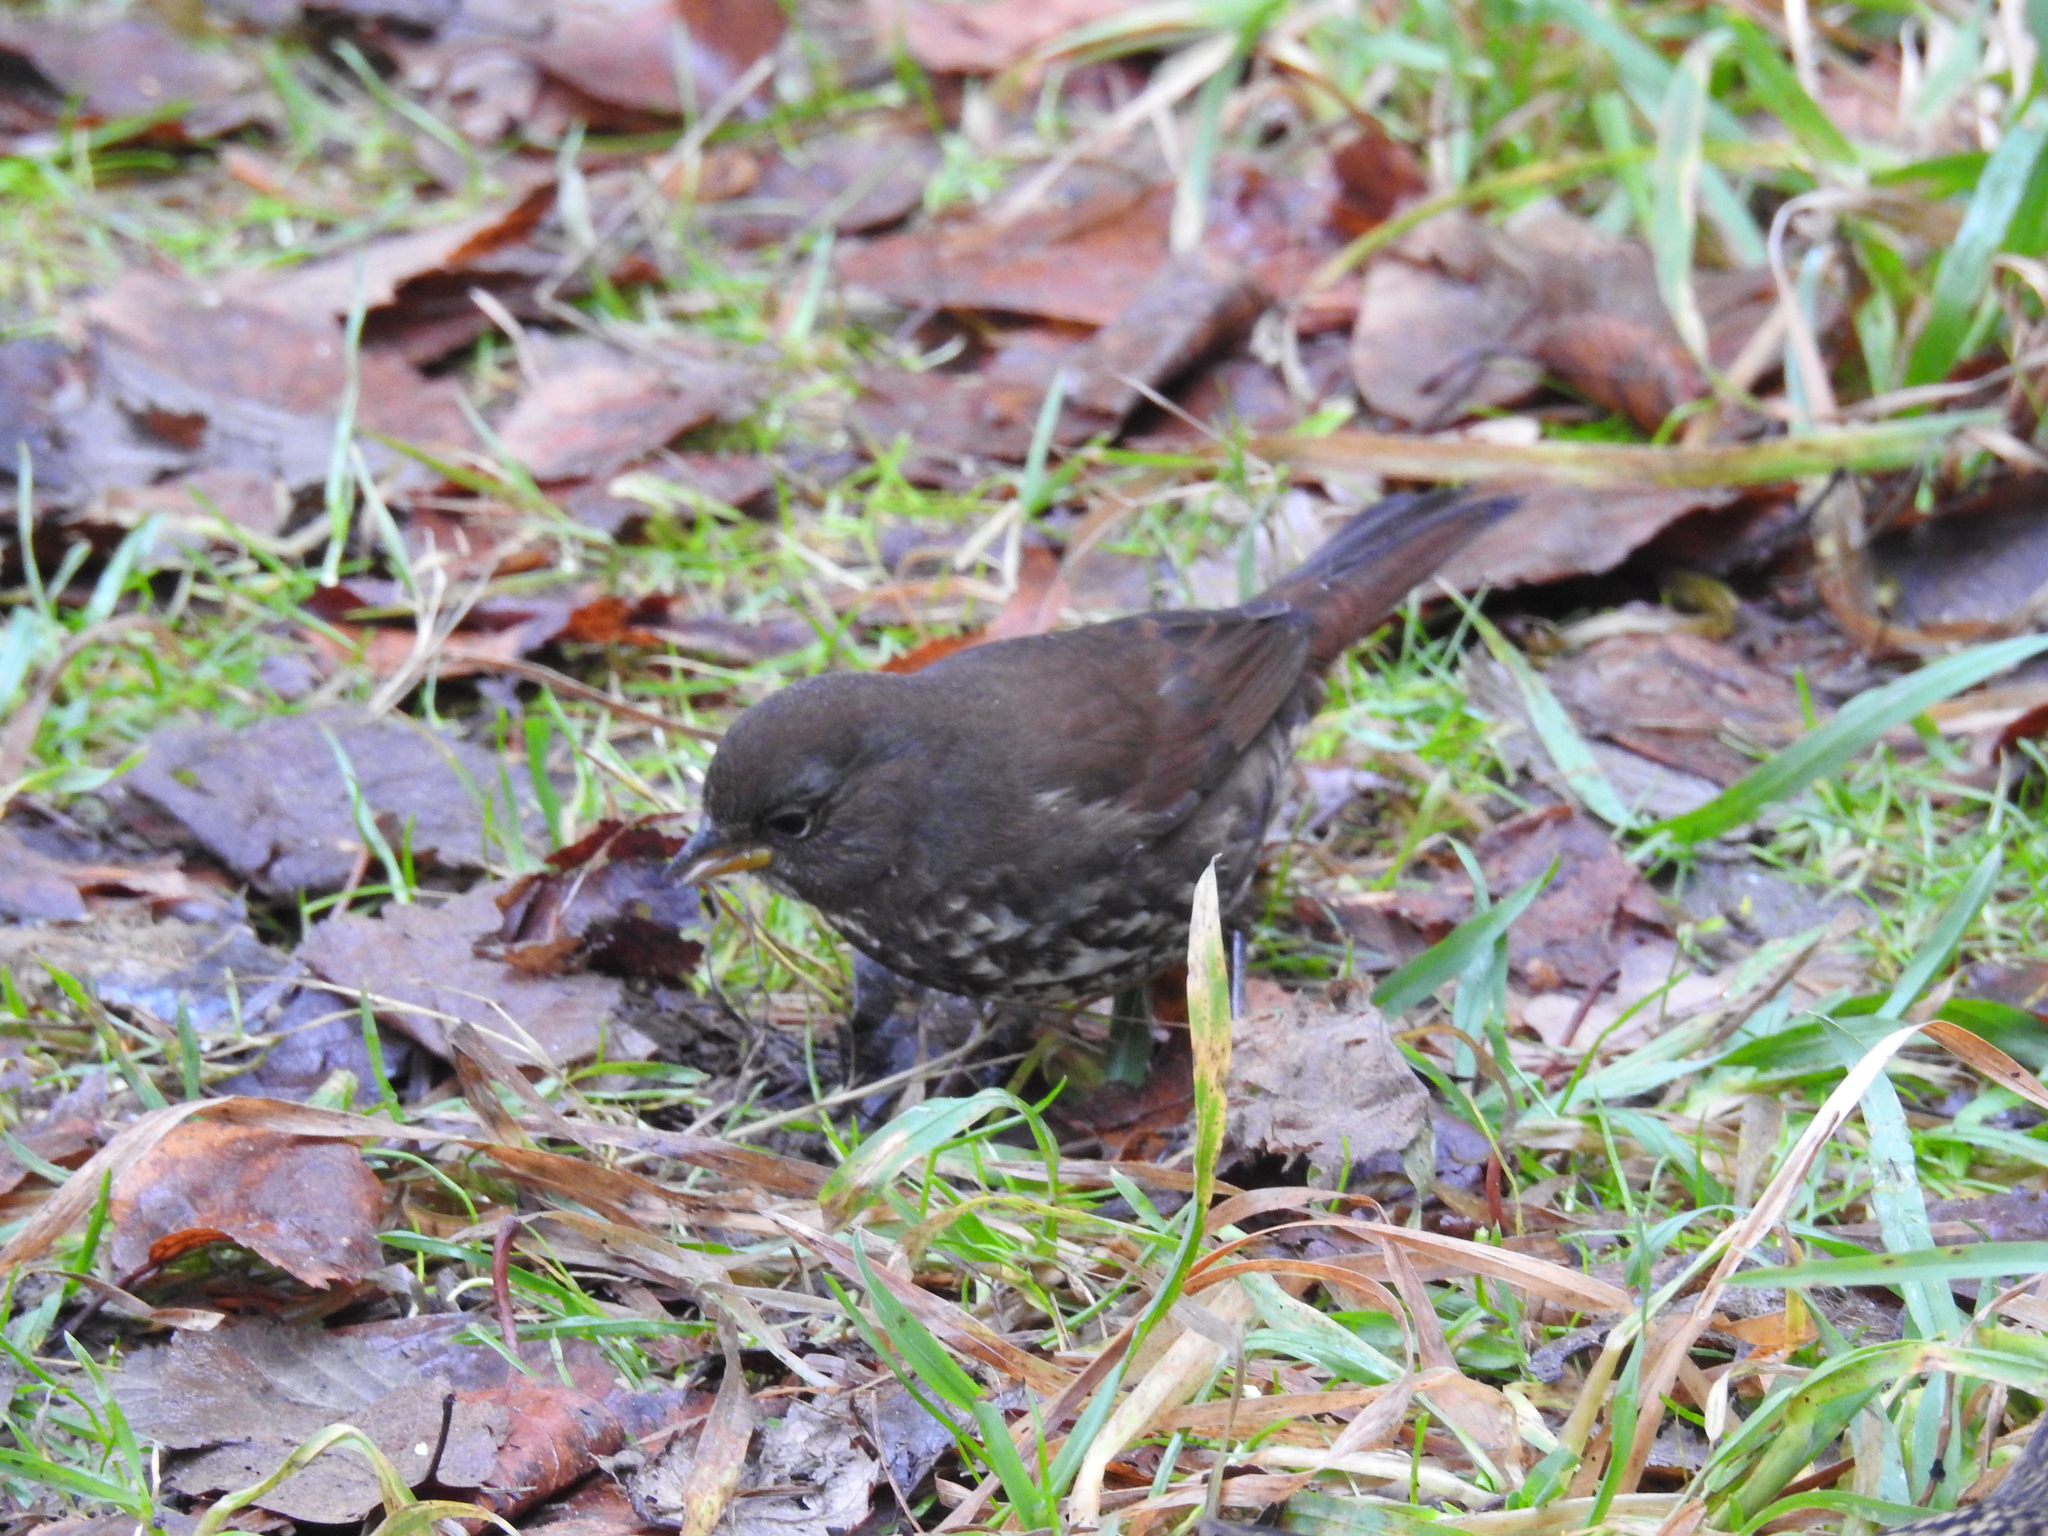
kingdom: Animalia
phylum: Chordata
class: Aves
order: Passeriformes
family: Passerellidae
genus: Passerella
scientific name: Passerella iliaca
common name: Fox sparrow
